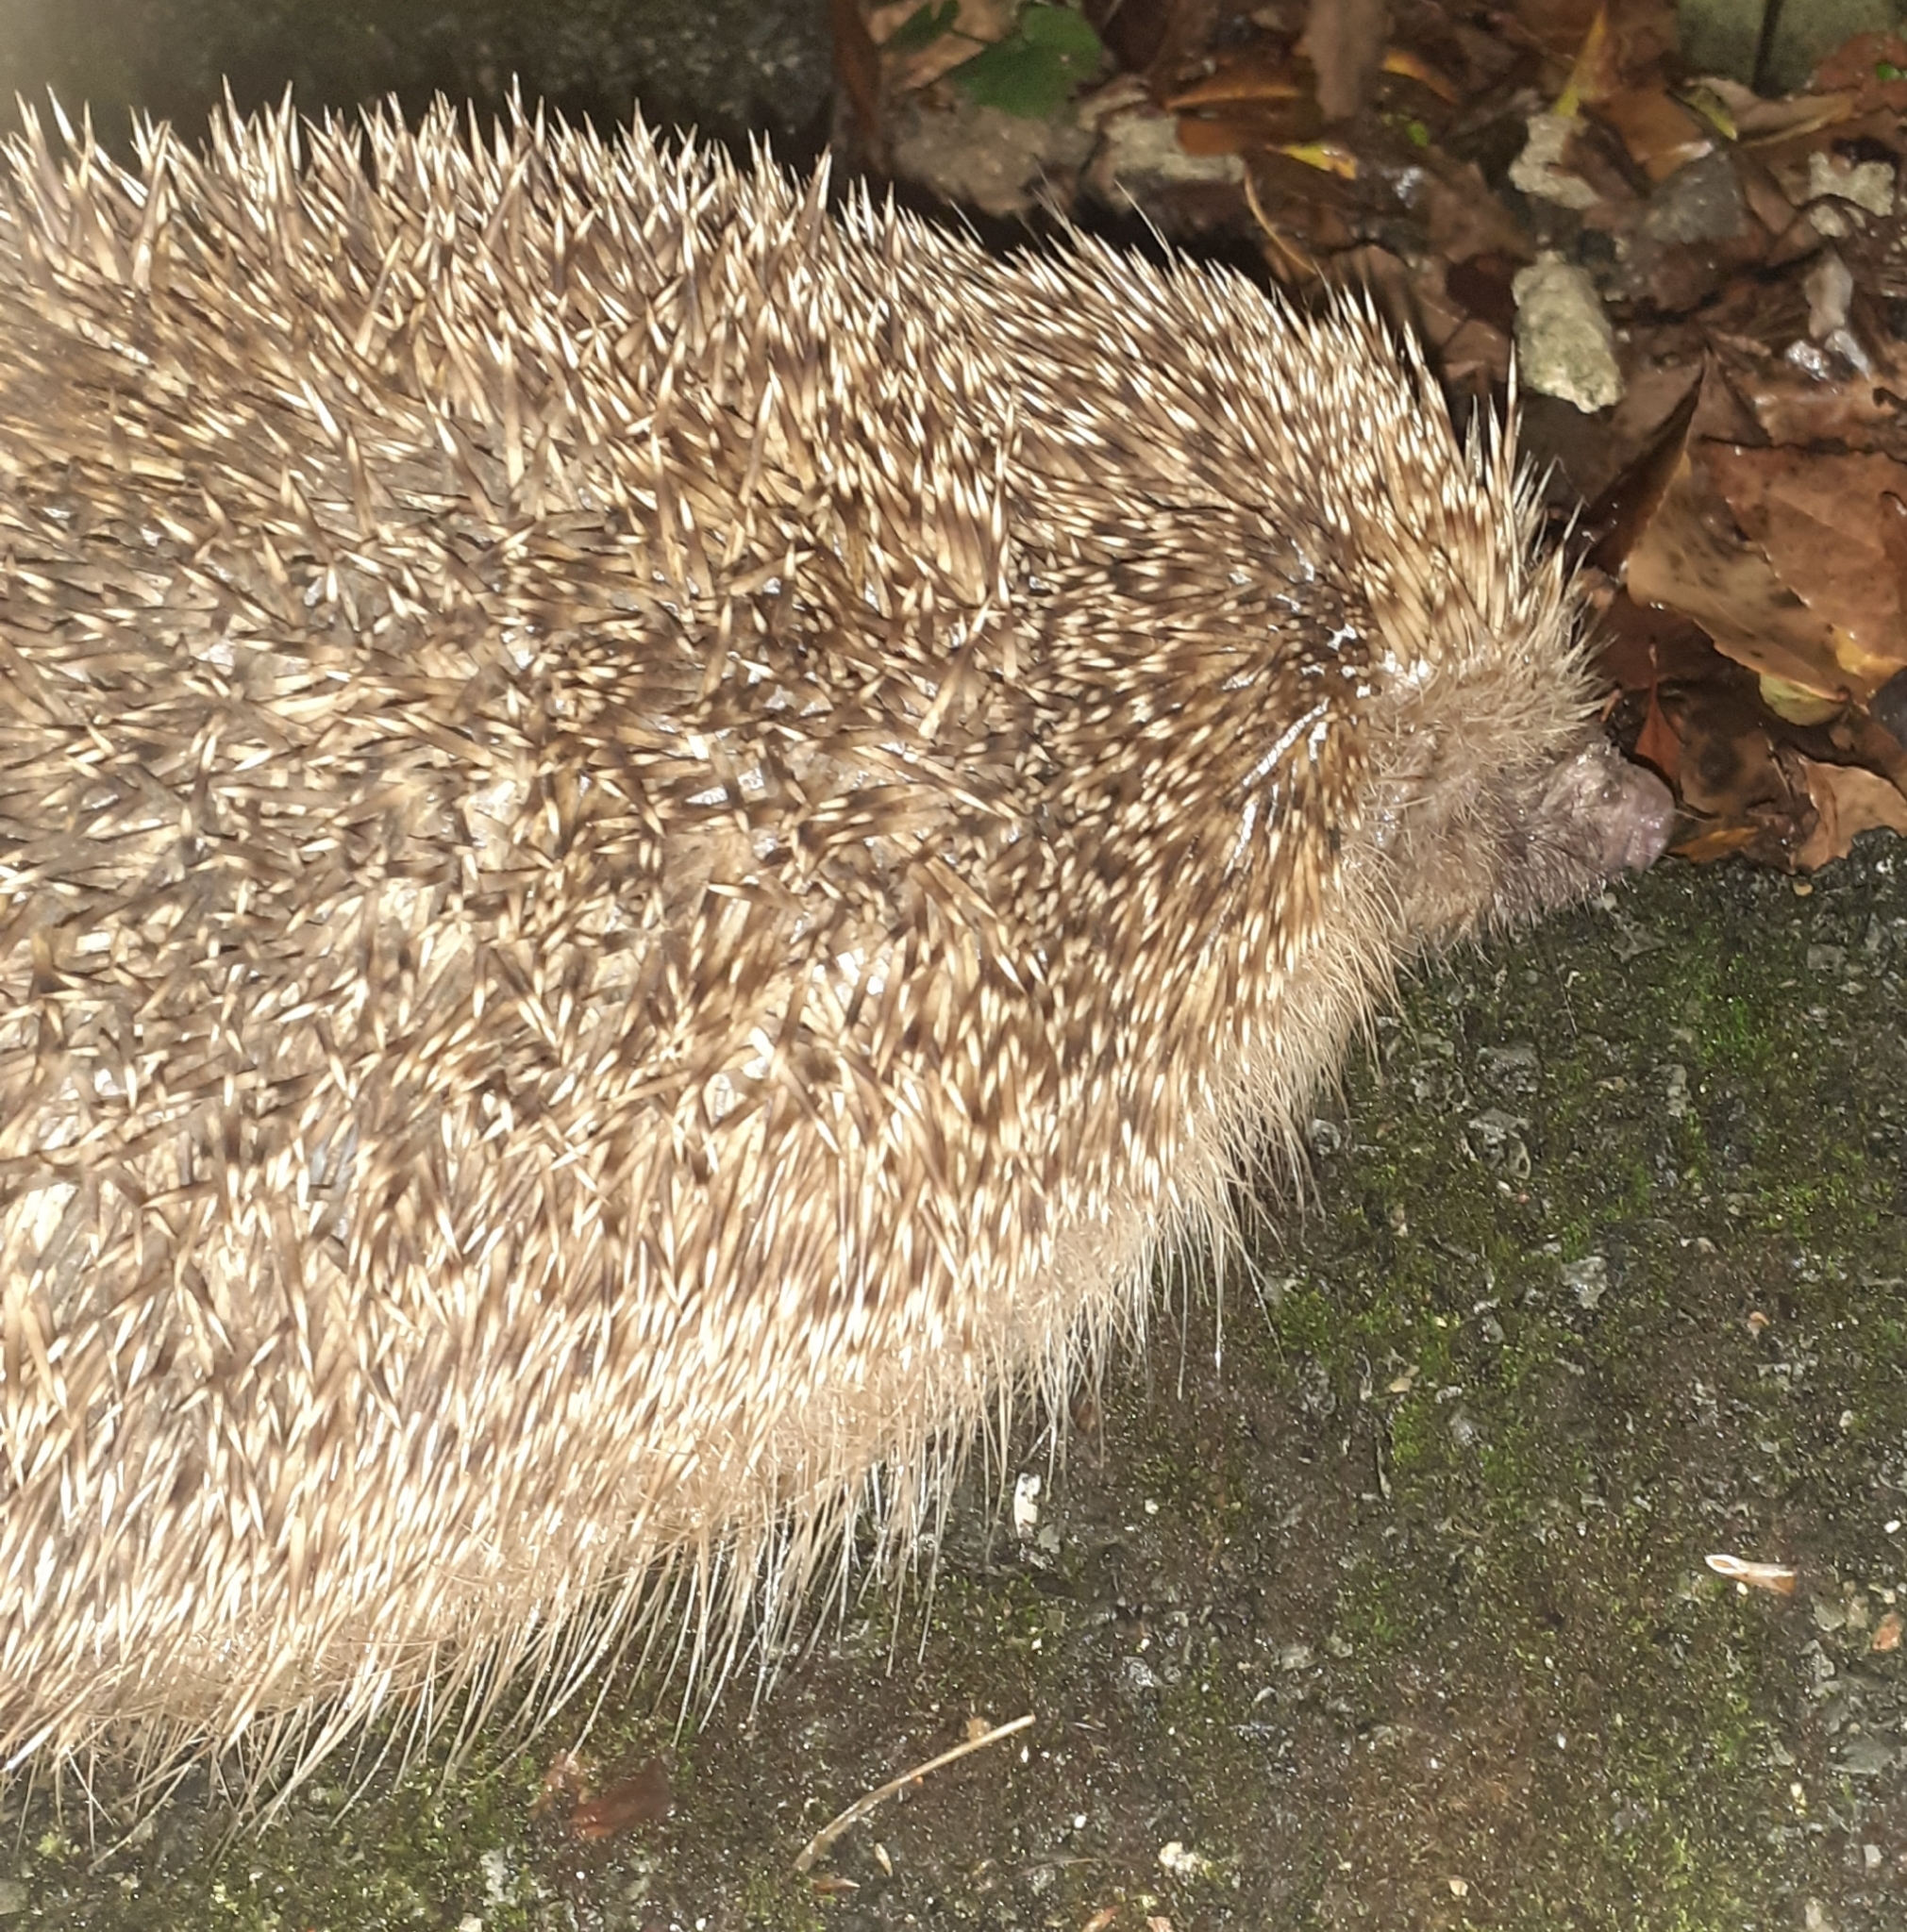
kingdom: Animalia
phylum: Chordata
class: Mammalia
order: Erinaceomorpha
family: Erinaceidae
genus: Erinaceus
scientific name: Erinaceus europaeus
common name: West european hedgehog
